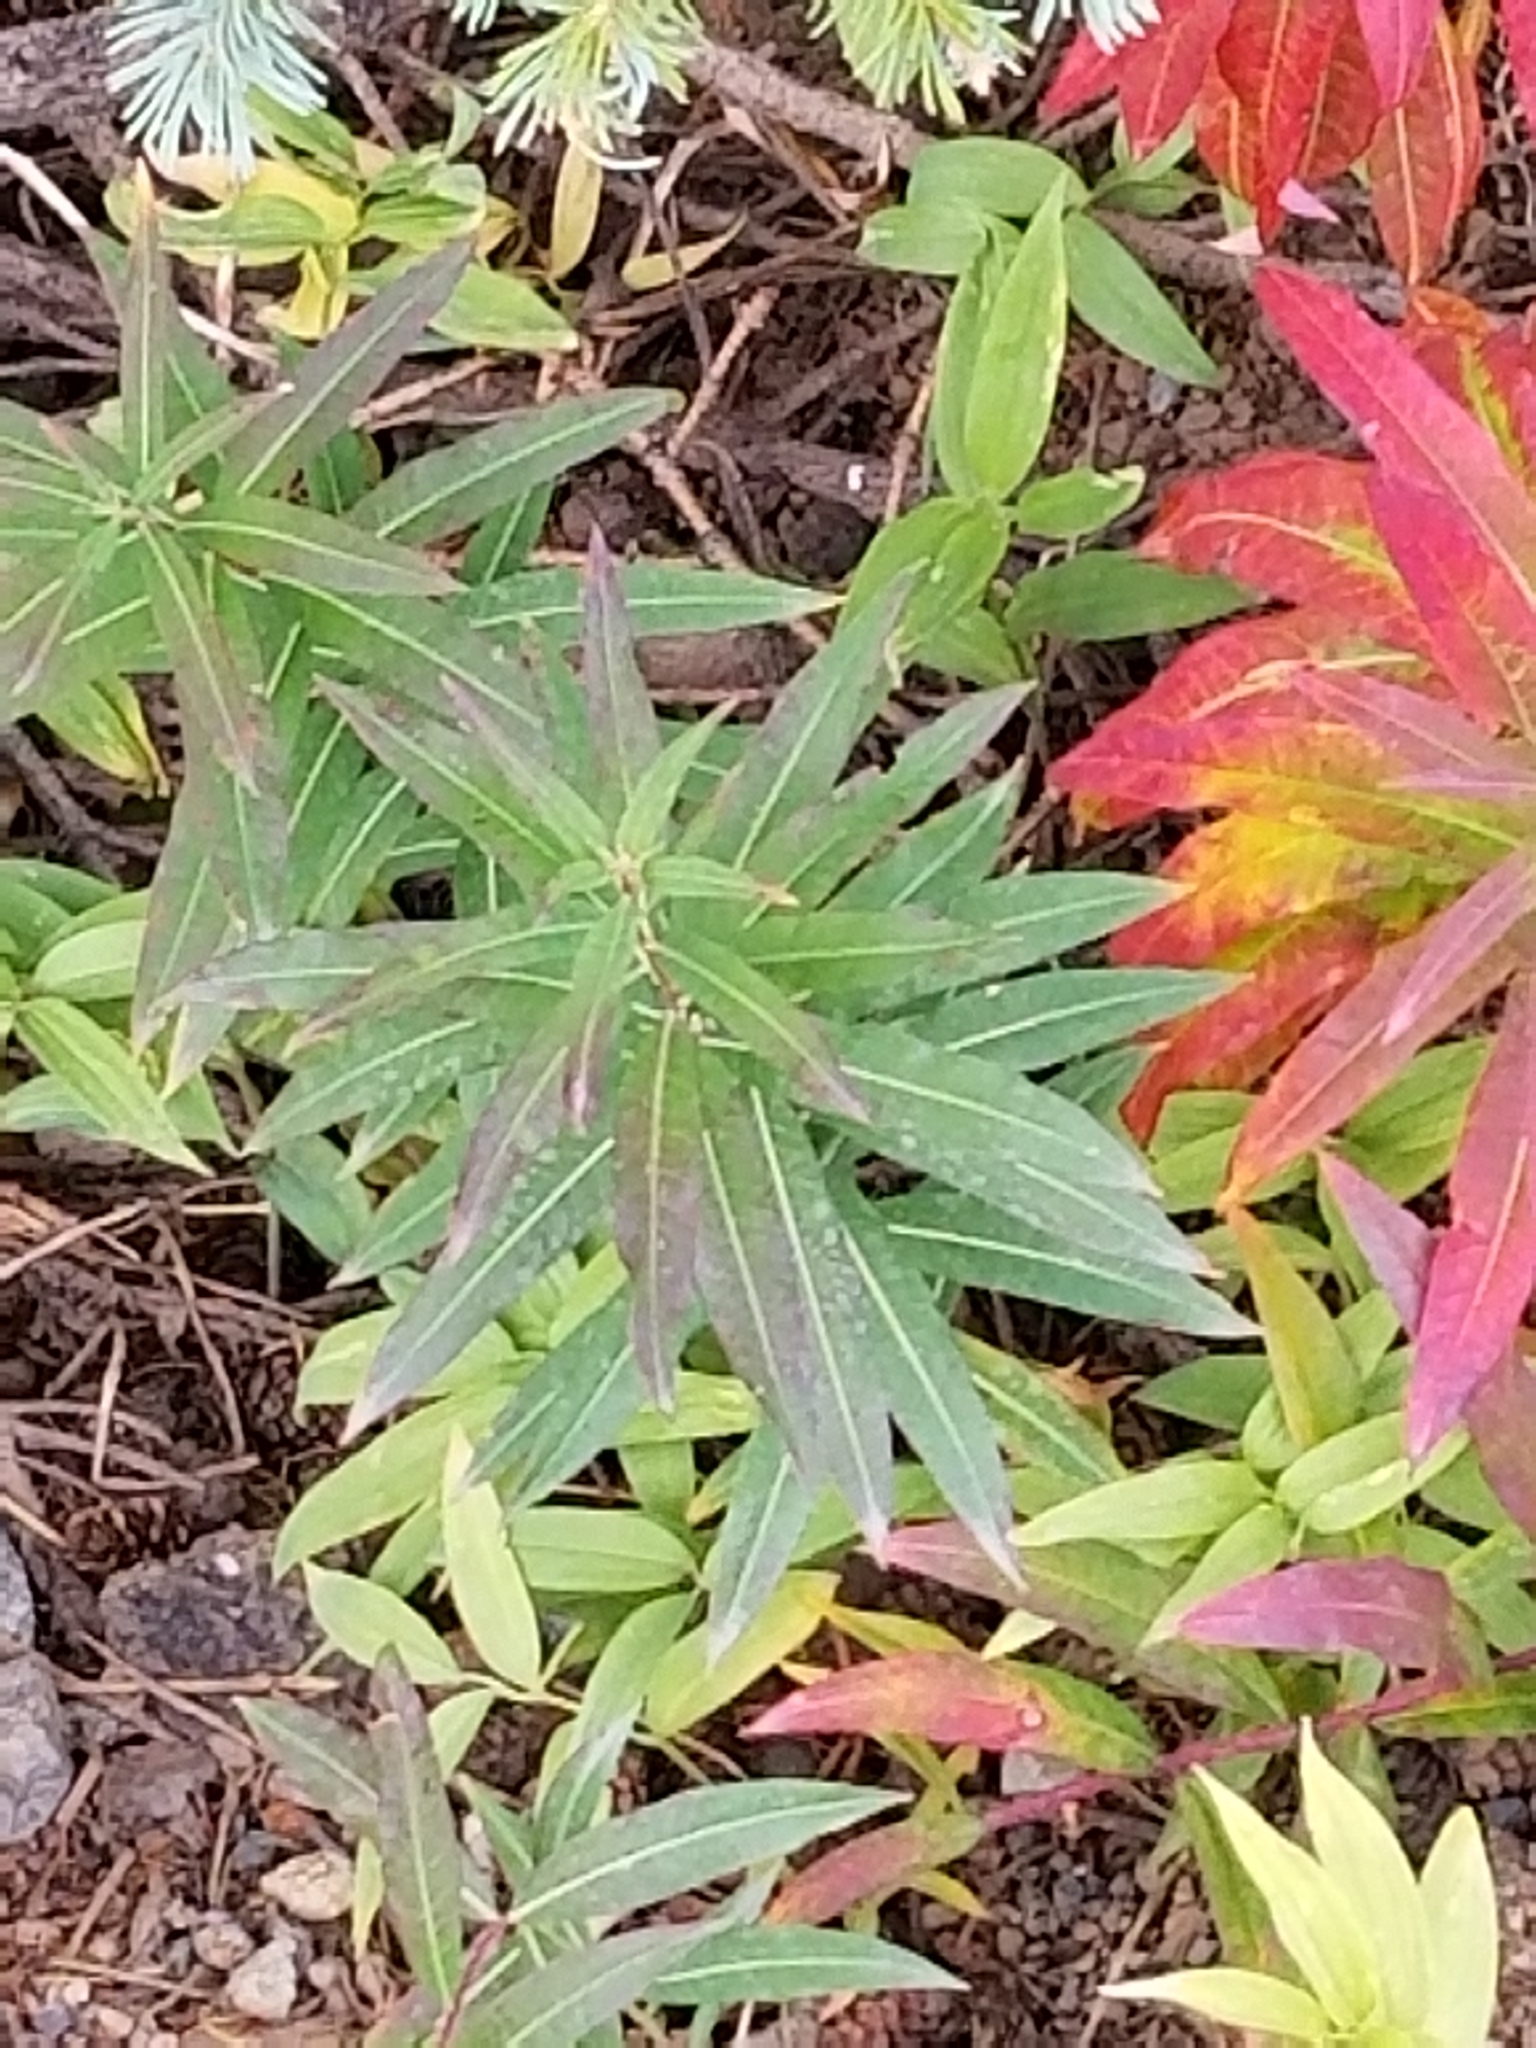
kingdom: Plantae
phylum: Tracheophyta
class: Magnoliopsida
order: Myrtales
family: Onagraceae
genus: Chamaenerion
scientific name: Chamaenerion angustifolium
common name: Fireweed
